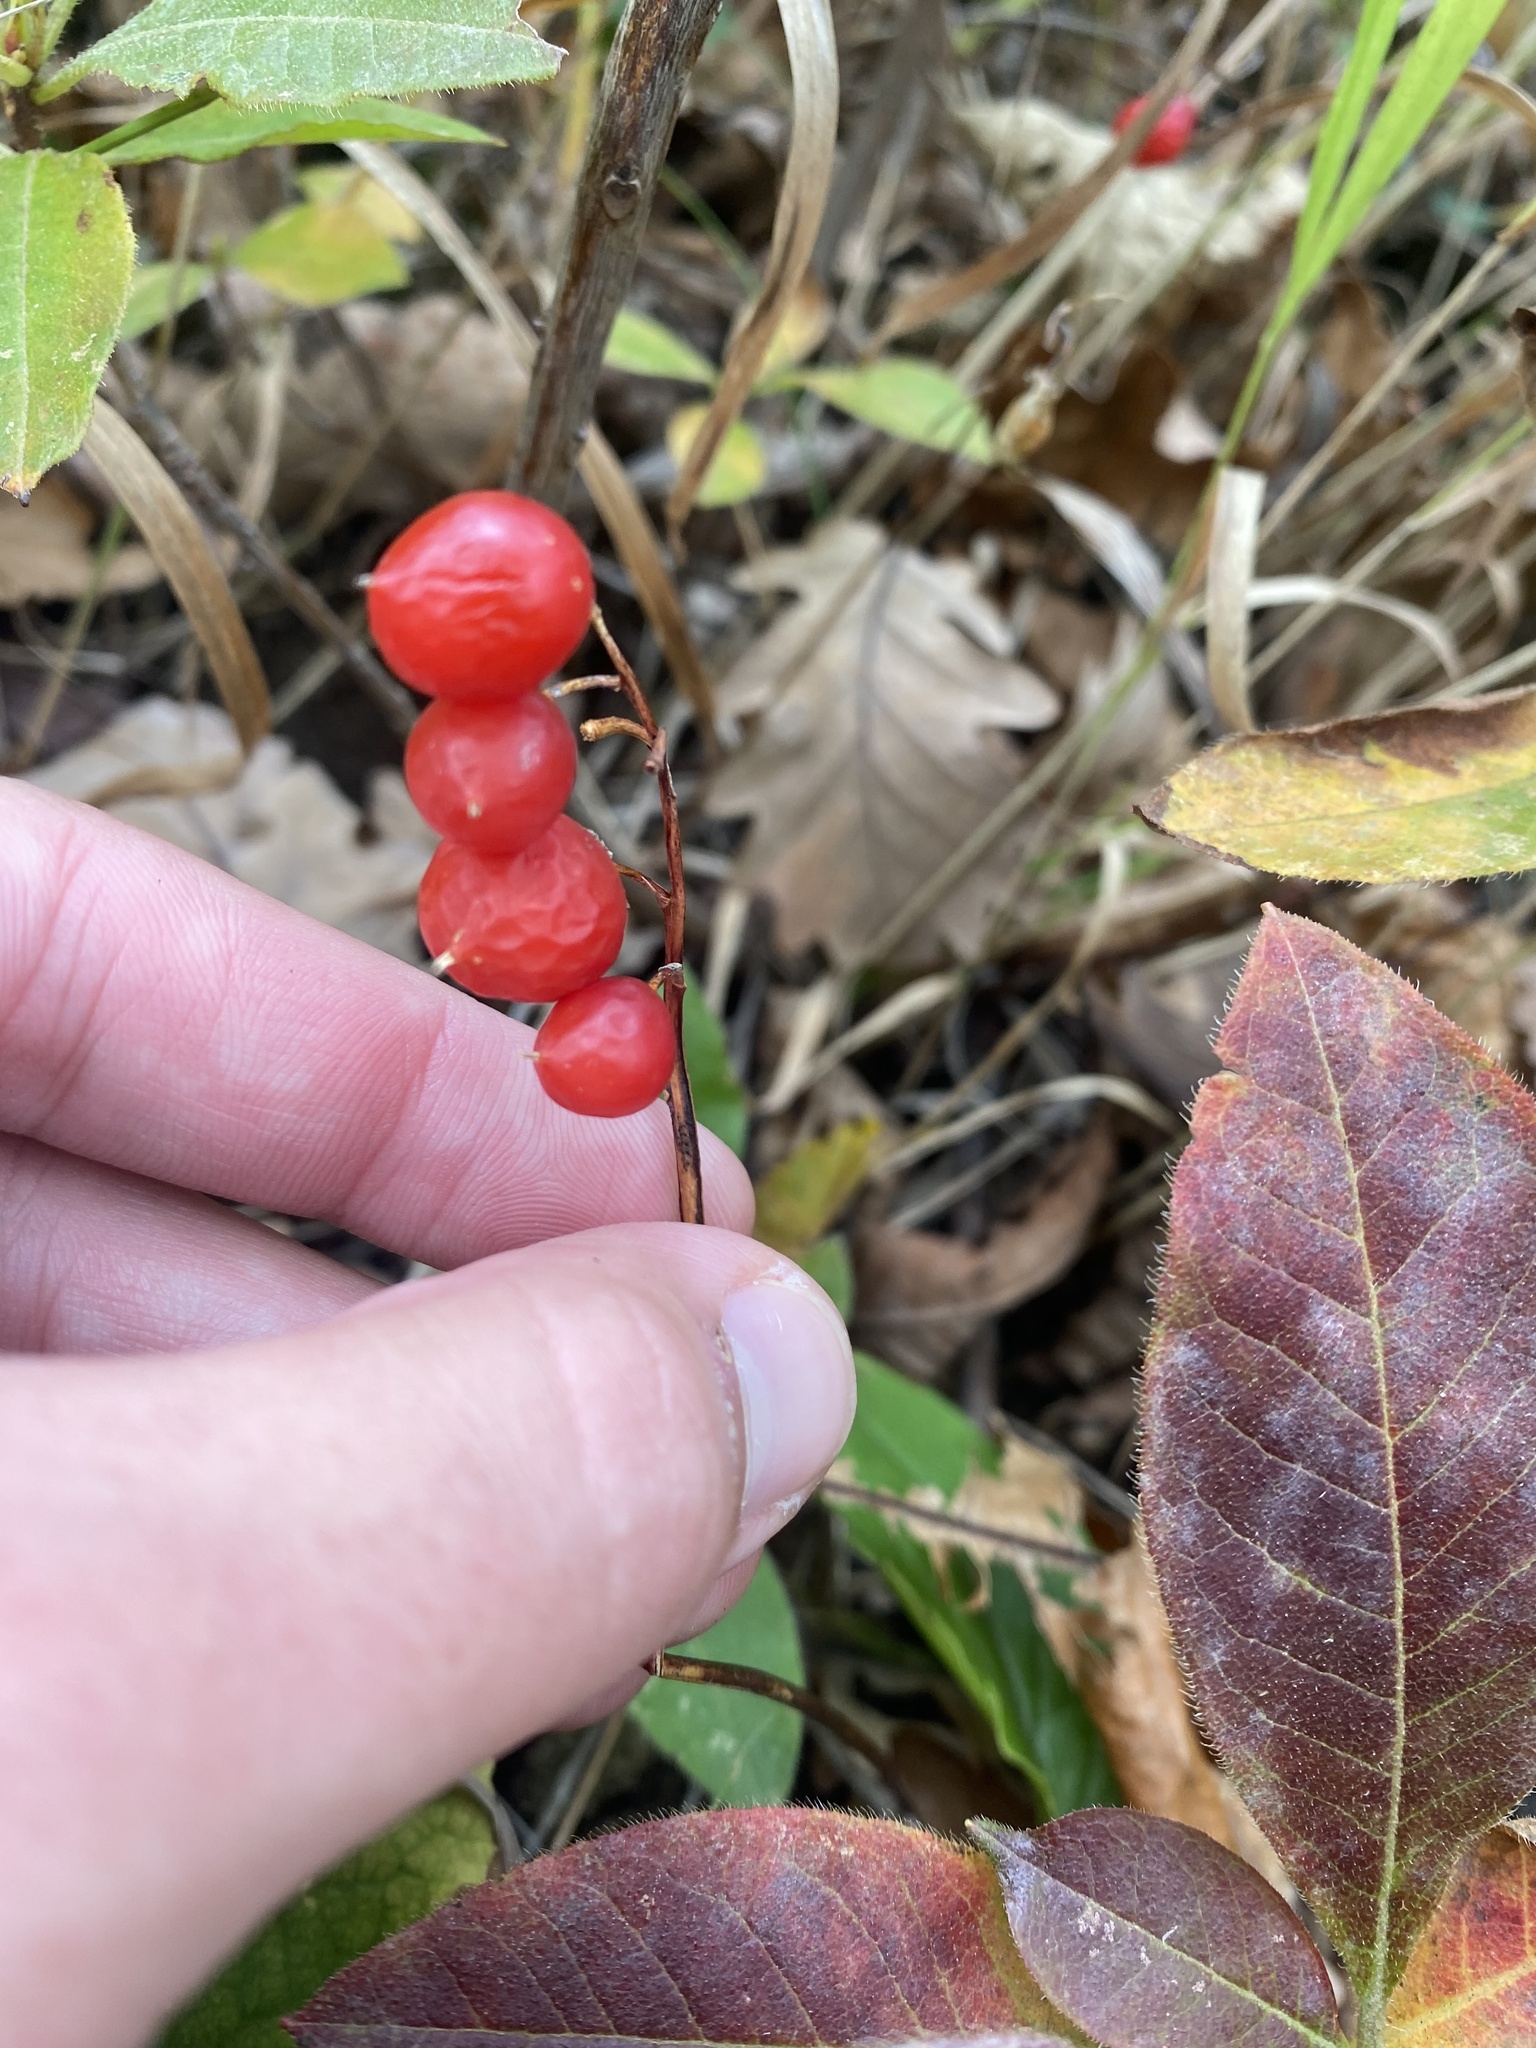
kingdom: Plantae
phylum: Tracheophyta
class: Liliopsida
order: Asparagales
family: Asparagaceae
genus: Convallaria
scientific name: Convallaria majalis
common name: Lily-of-the-valley
